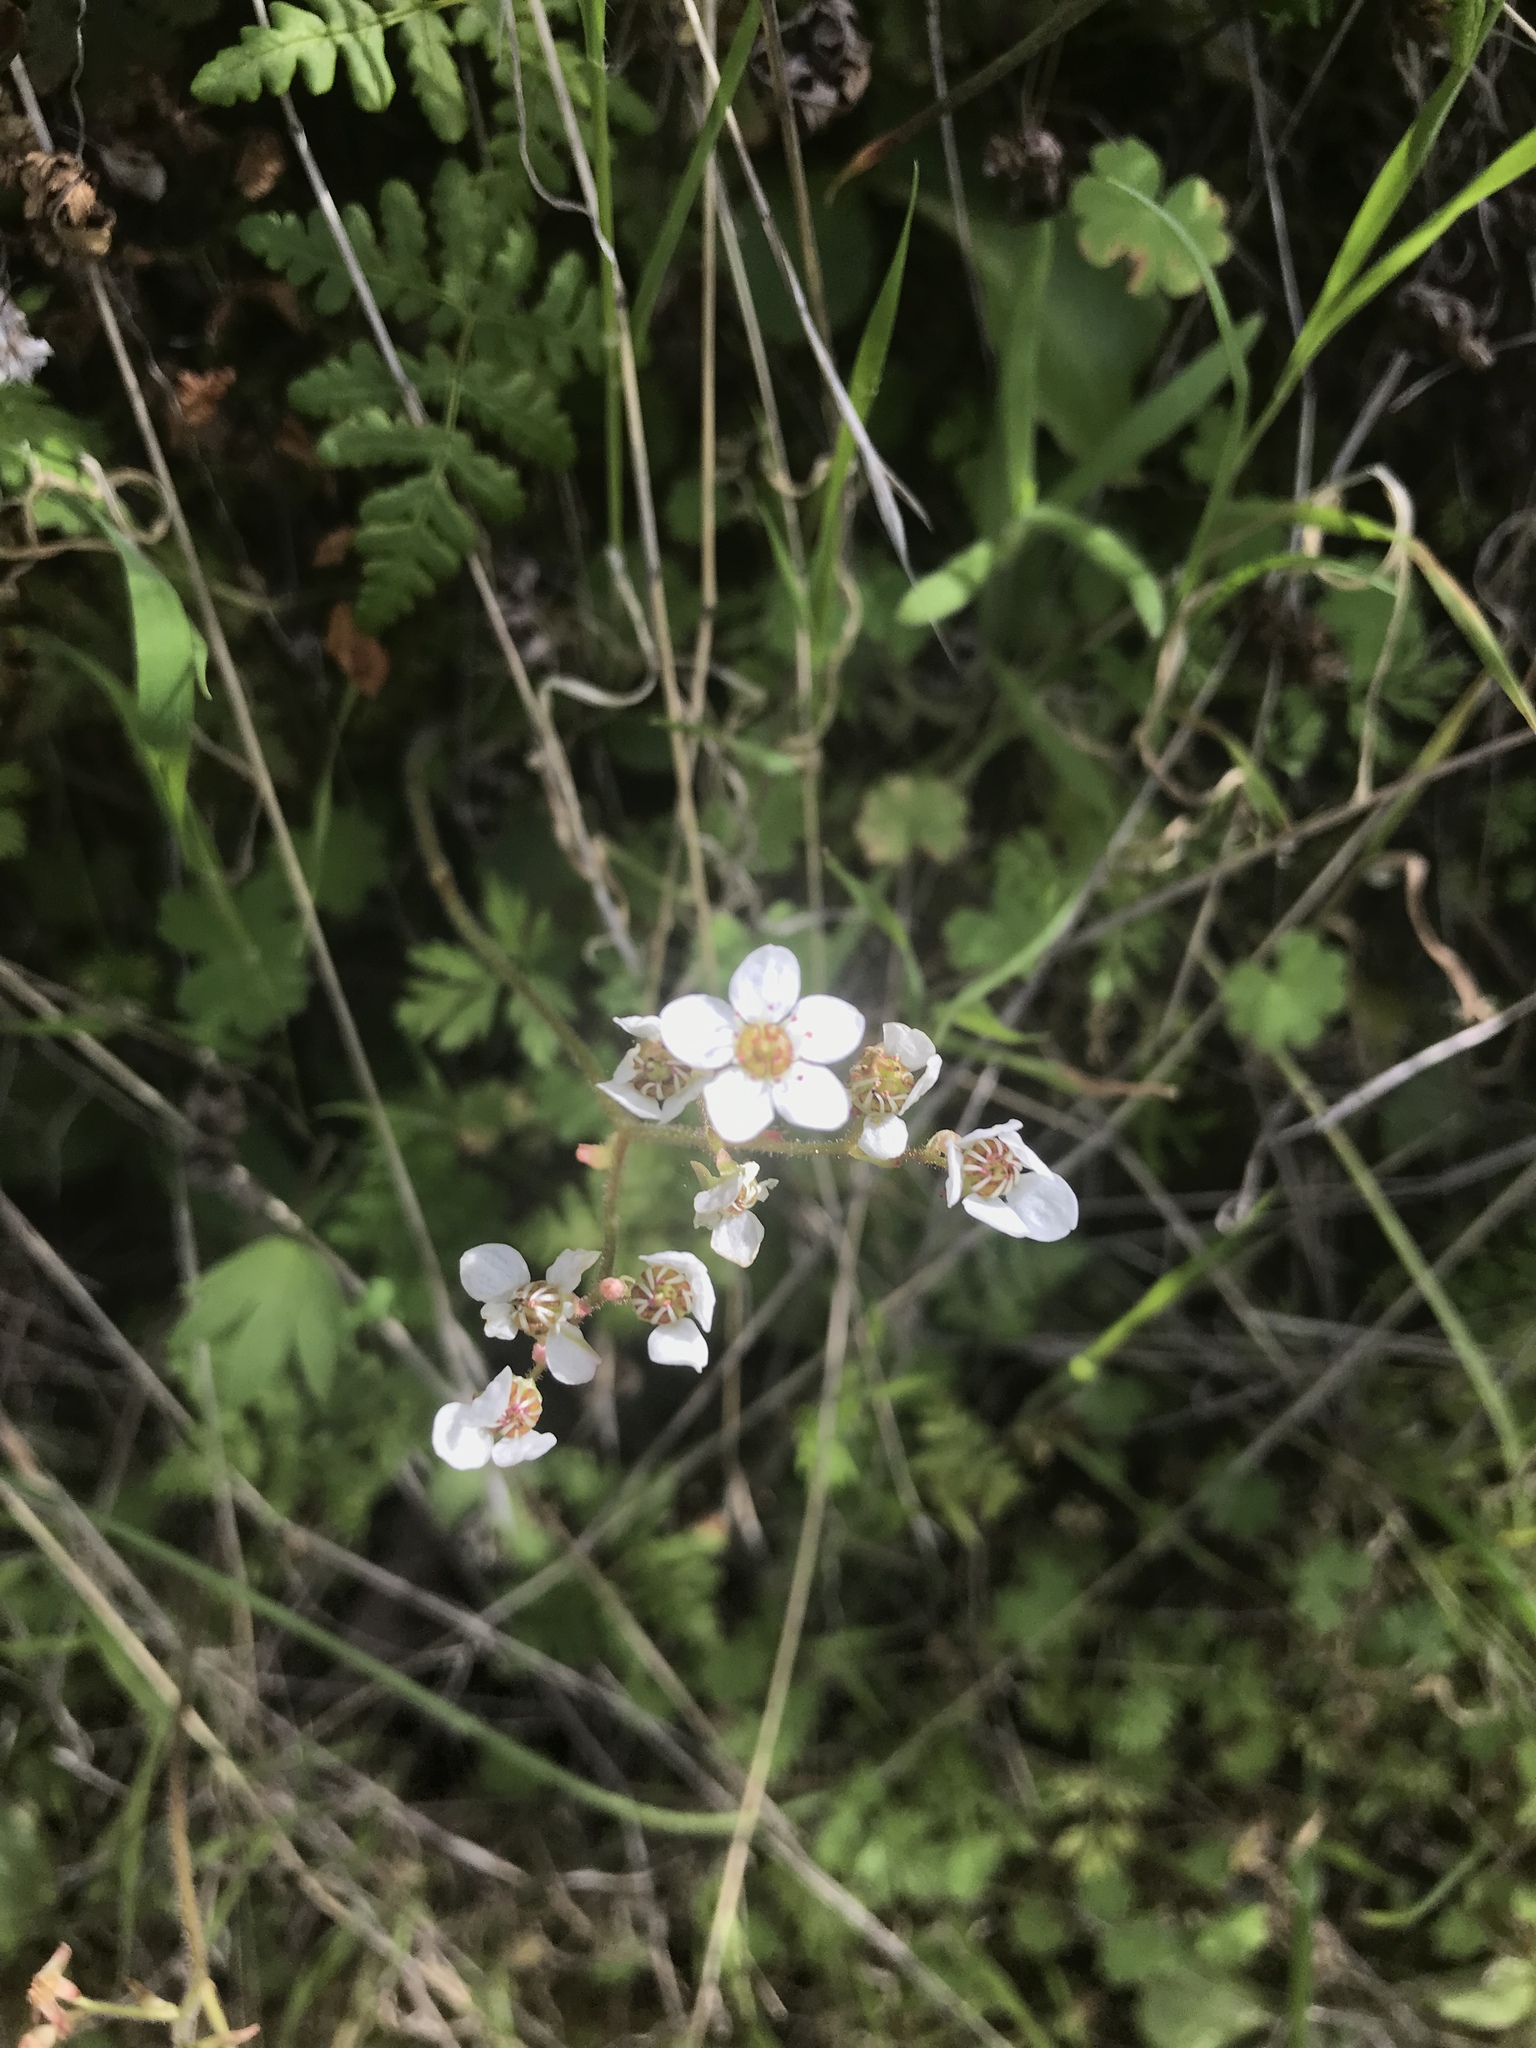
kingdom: Plantae
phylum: Tracheophyta
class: Magnoliopsida
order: Saxifragales
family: Saxifragaceae
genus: Micranthes
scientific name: Micranthes californica
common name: California saxifrage
